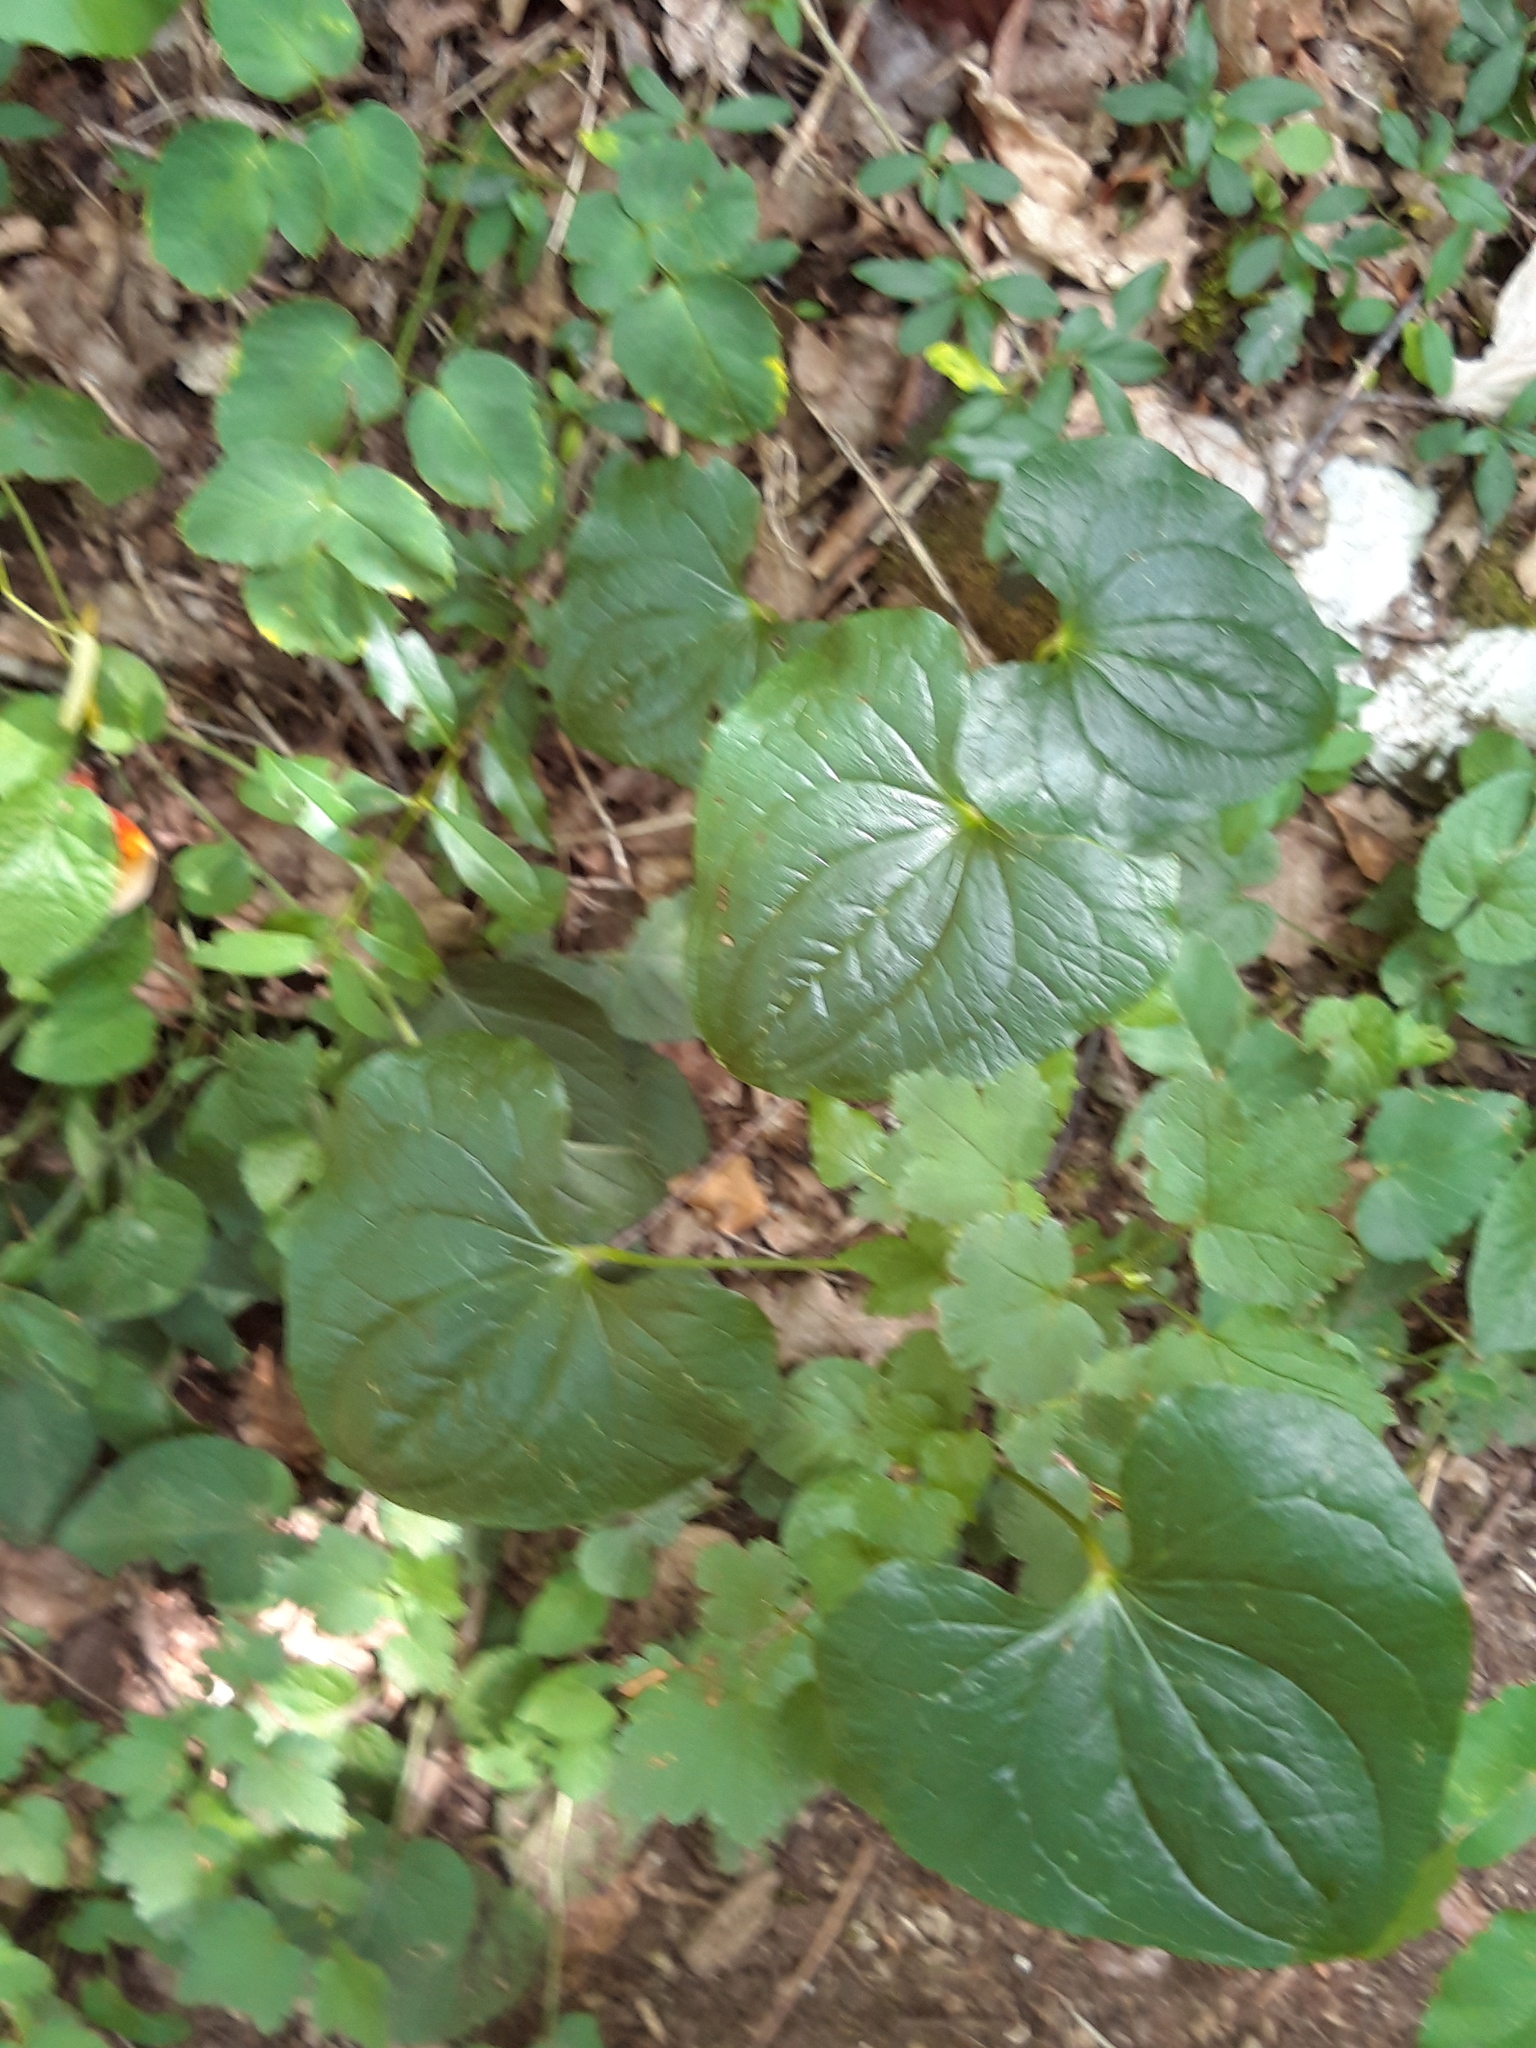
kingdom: Plantae
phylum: Tracheophyta
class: Liliopsida
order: Dioscoreales
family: Dioscoreaceae
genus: Dioscorea
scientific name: Dioscorea communis
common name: Black-bindweed
